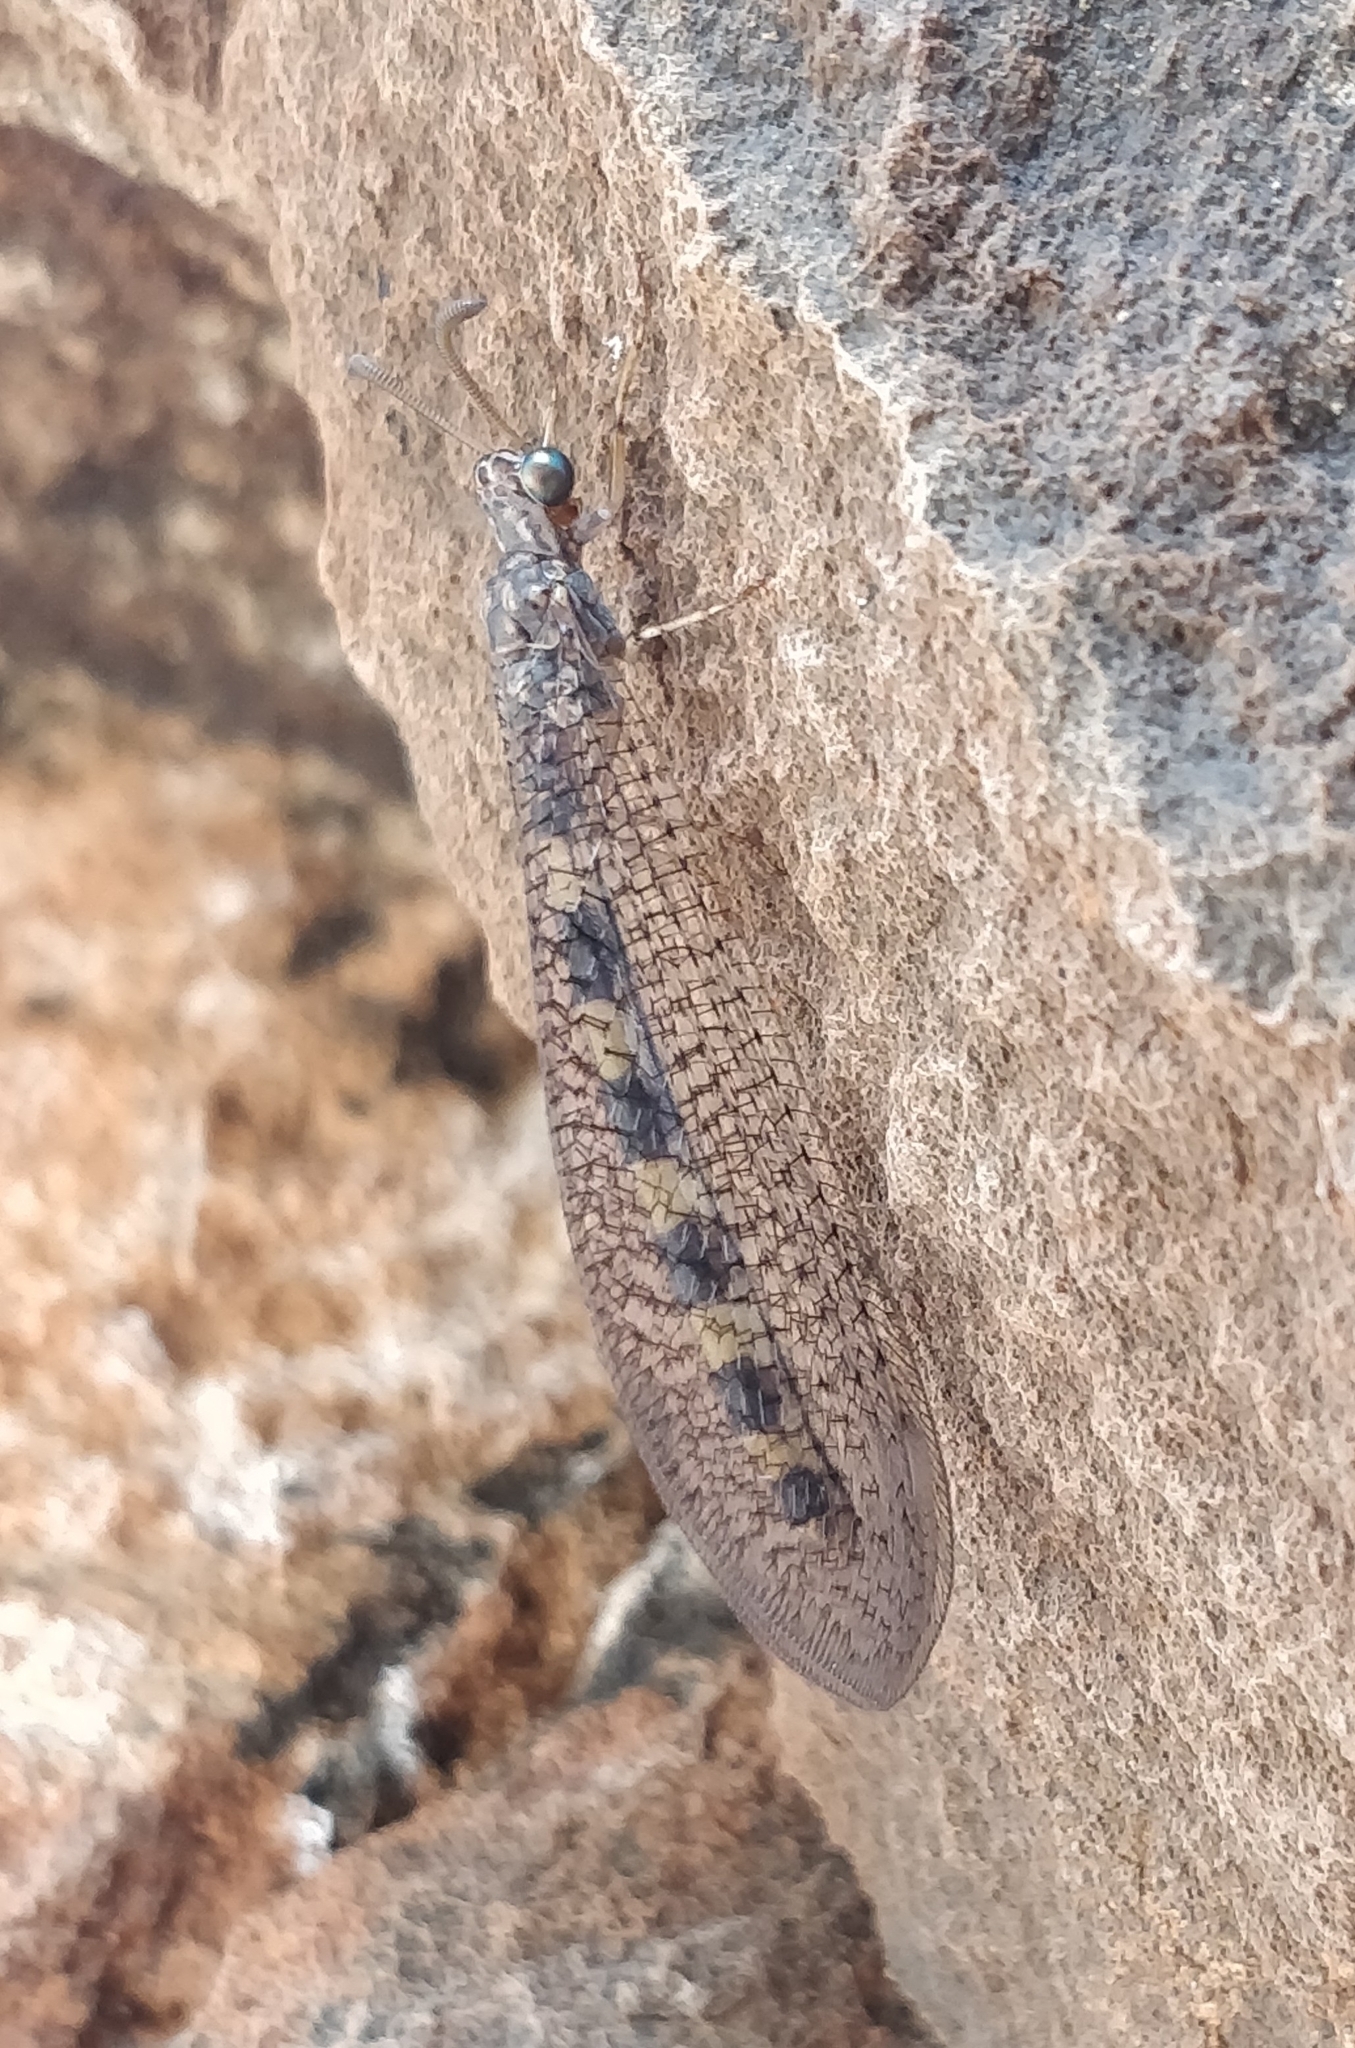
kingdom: Animalia
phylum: Arthropoda
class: Insecta
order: Neuroptera
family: Myrmeleontidae
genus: Myrmeleon
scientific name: Myrmeleon alternans
